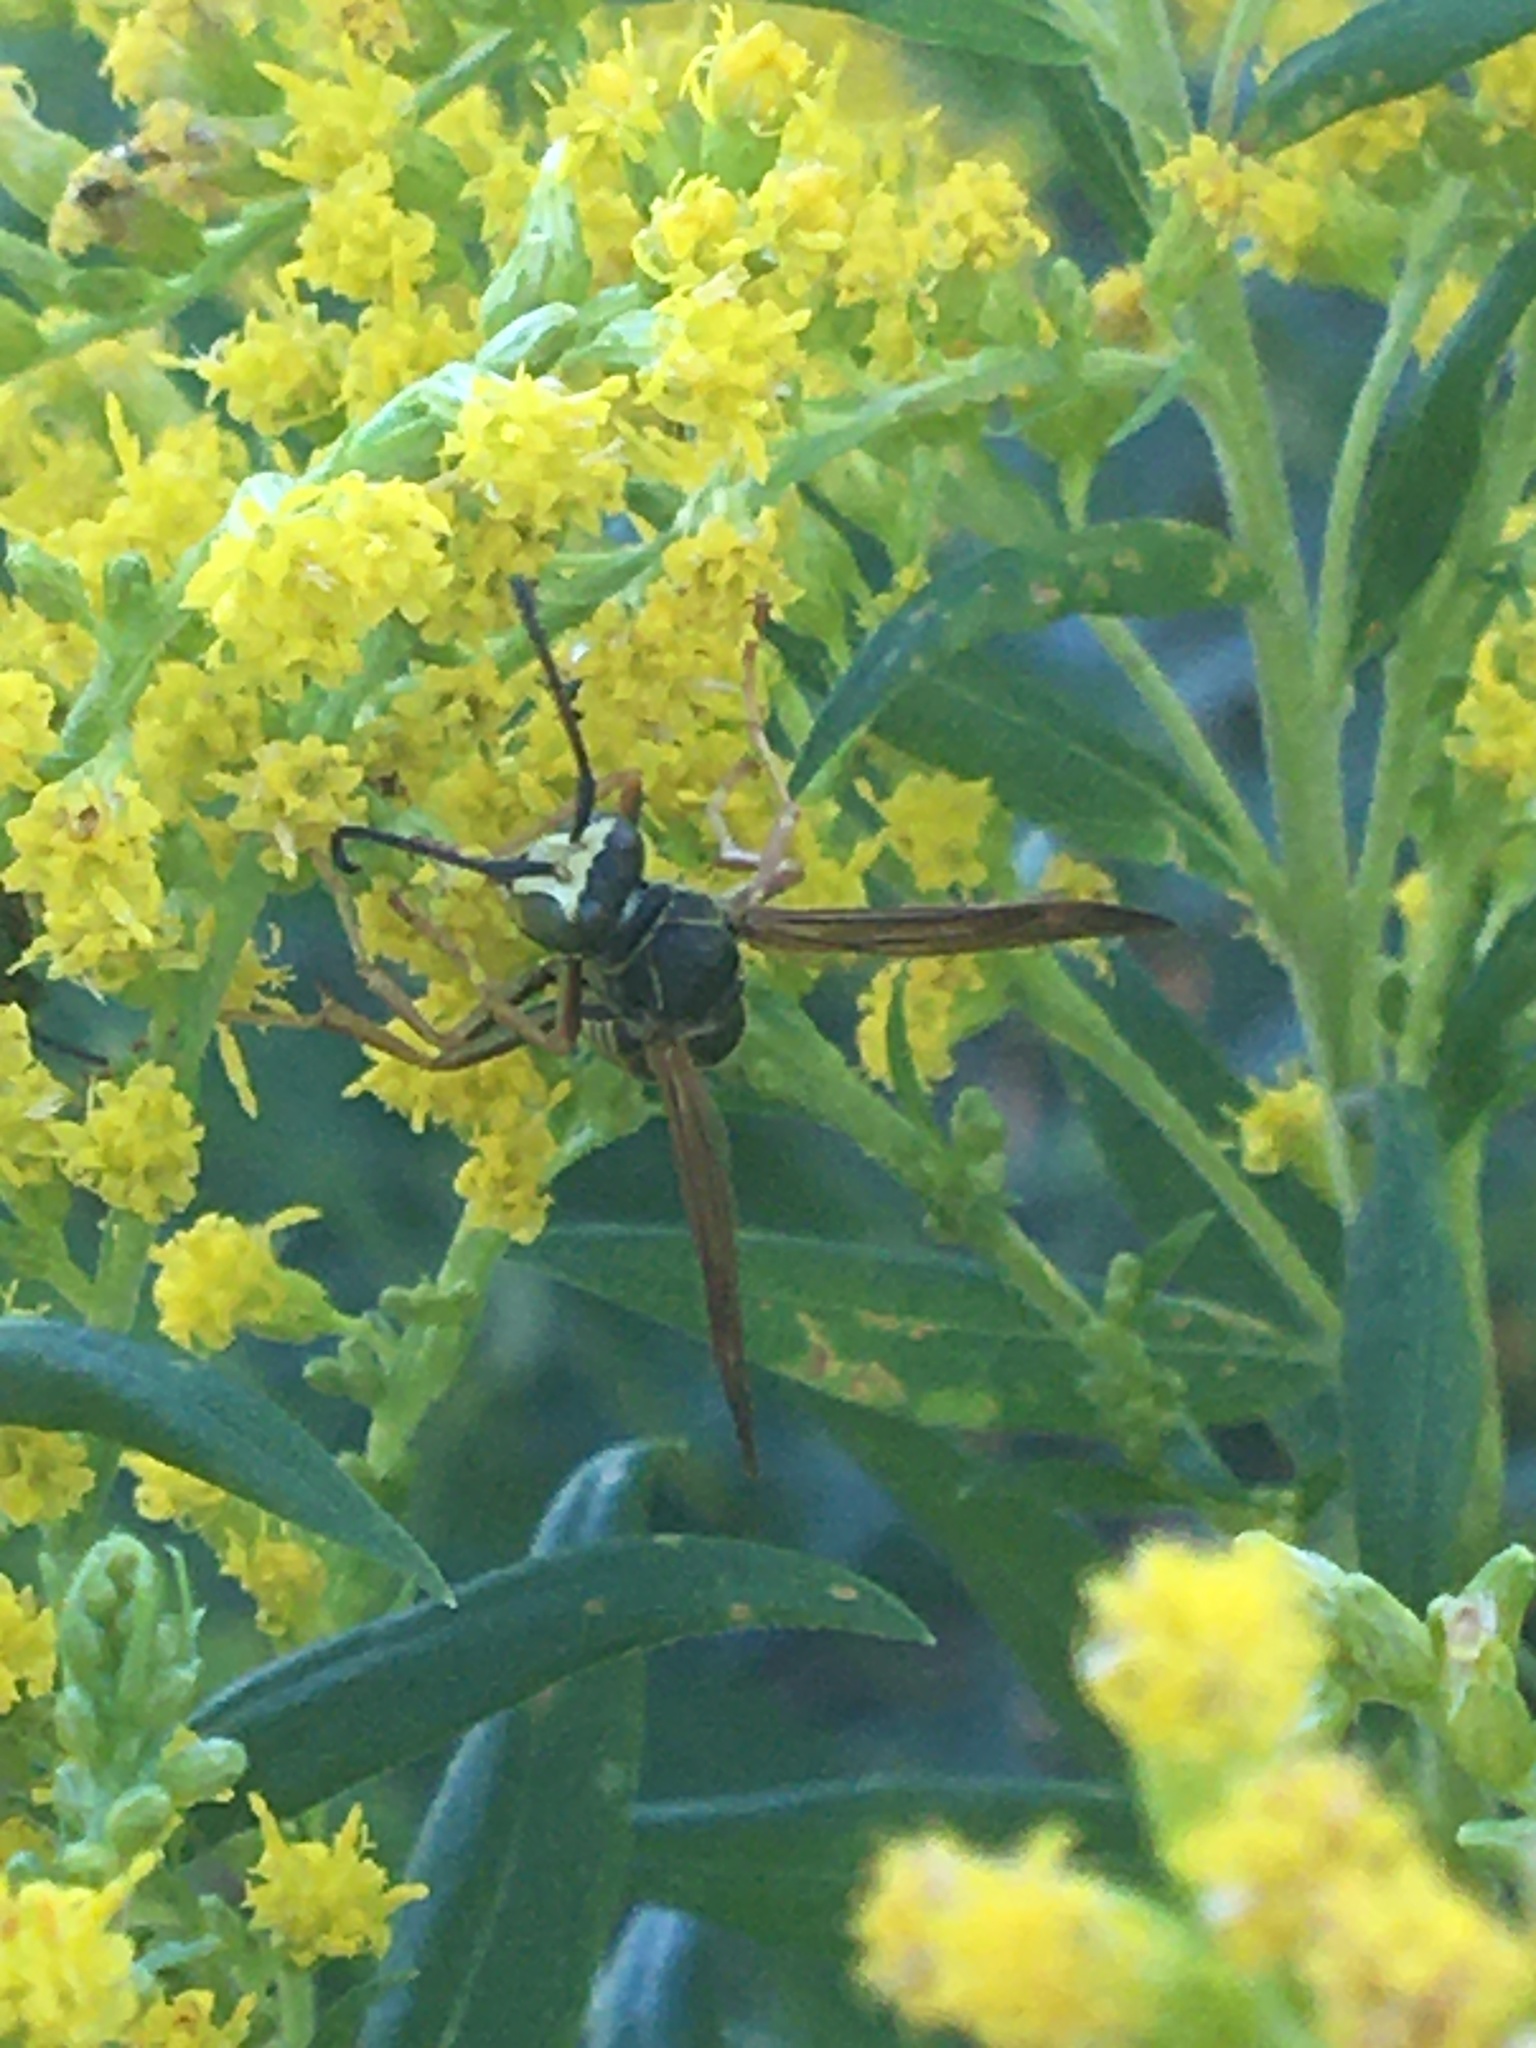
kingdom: Animalia
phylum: Arthropoda
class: Insecta
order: Hymenoptera
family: Eumenidae
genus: Polistes
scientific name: Polistes fuscatus
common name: Dark paper wasp
